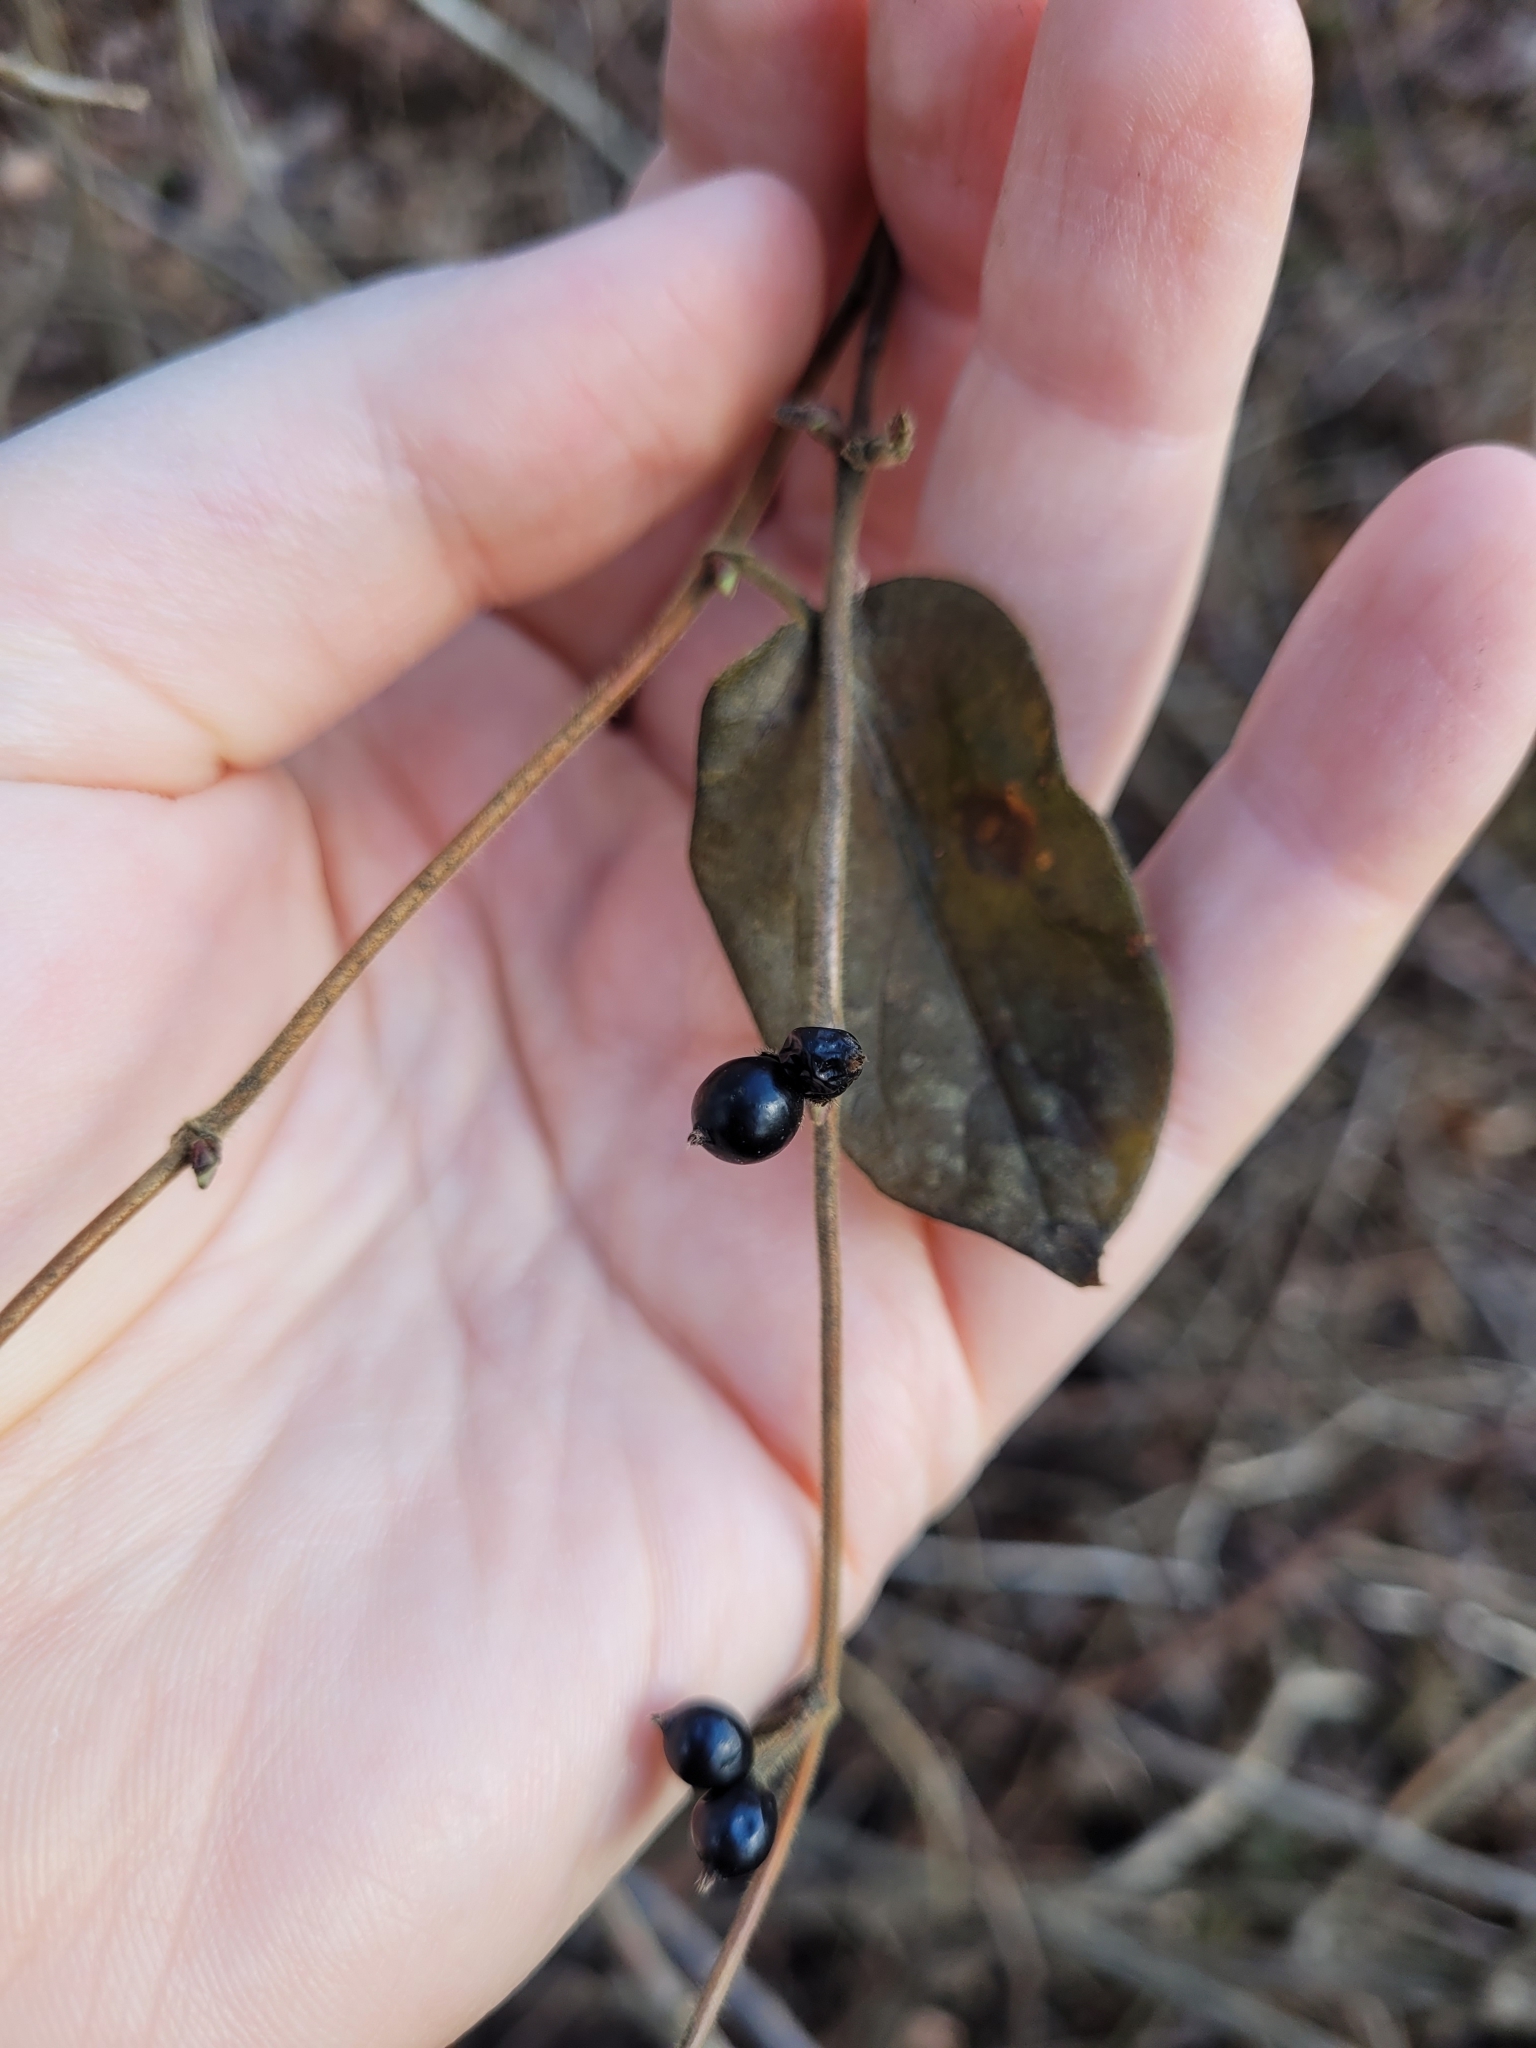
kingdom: Plantae
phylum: Tracheophyta
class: Magnoliopsida
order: Dipsacales
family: Caprifoliaceae
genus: Lonicera
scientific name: Lonicera japonica
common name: Japanese honeysuckle
